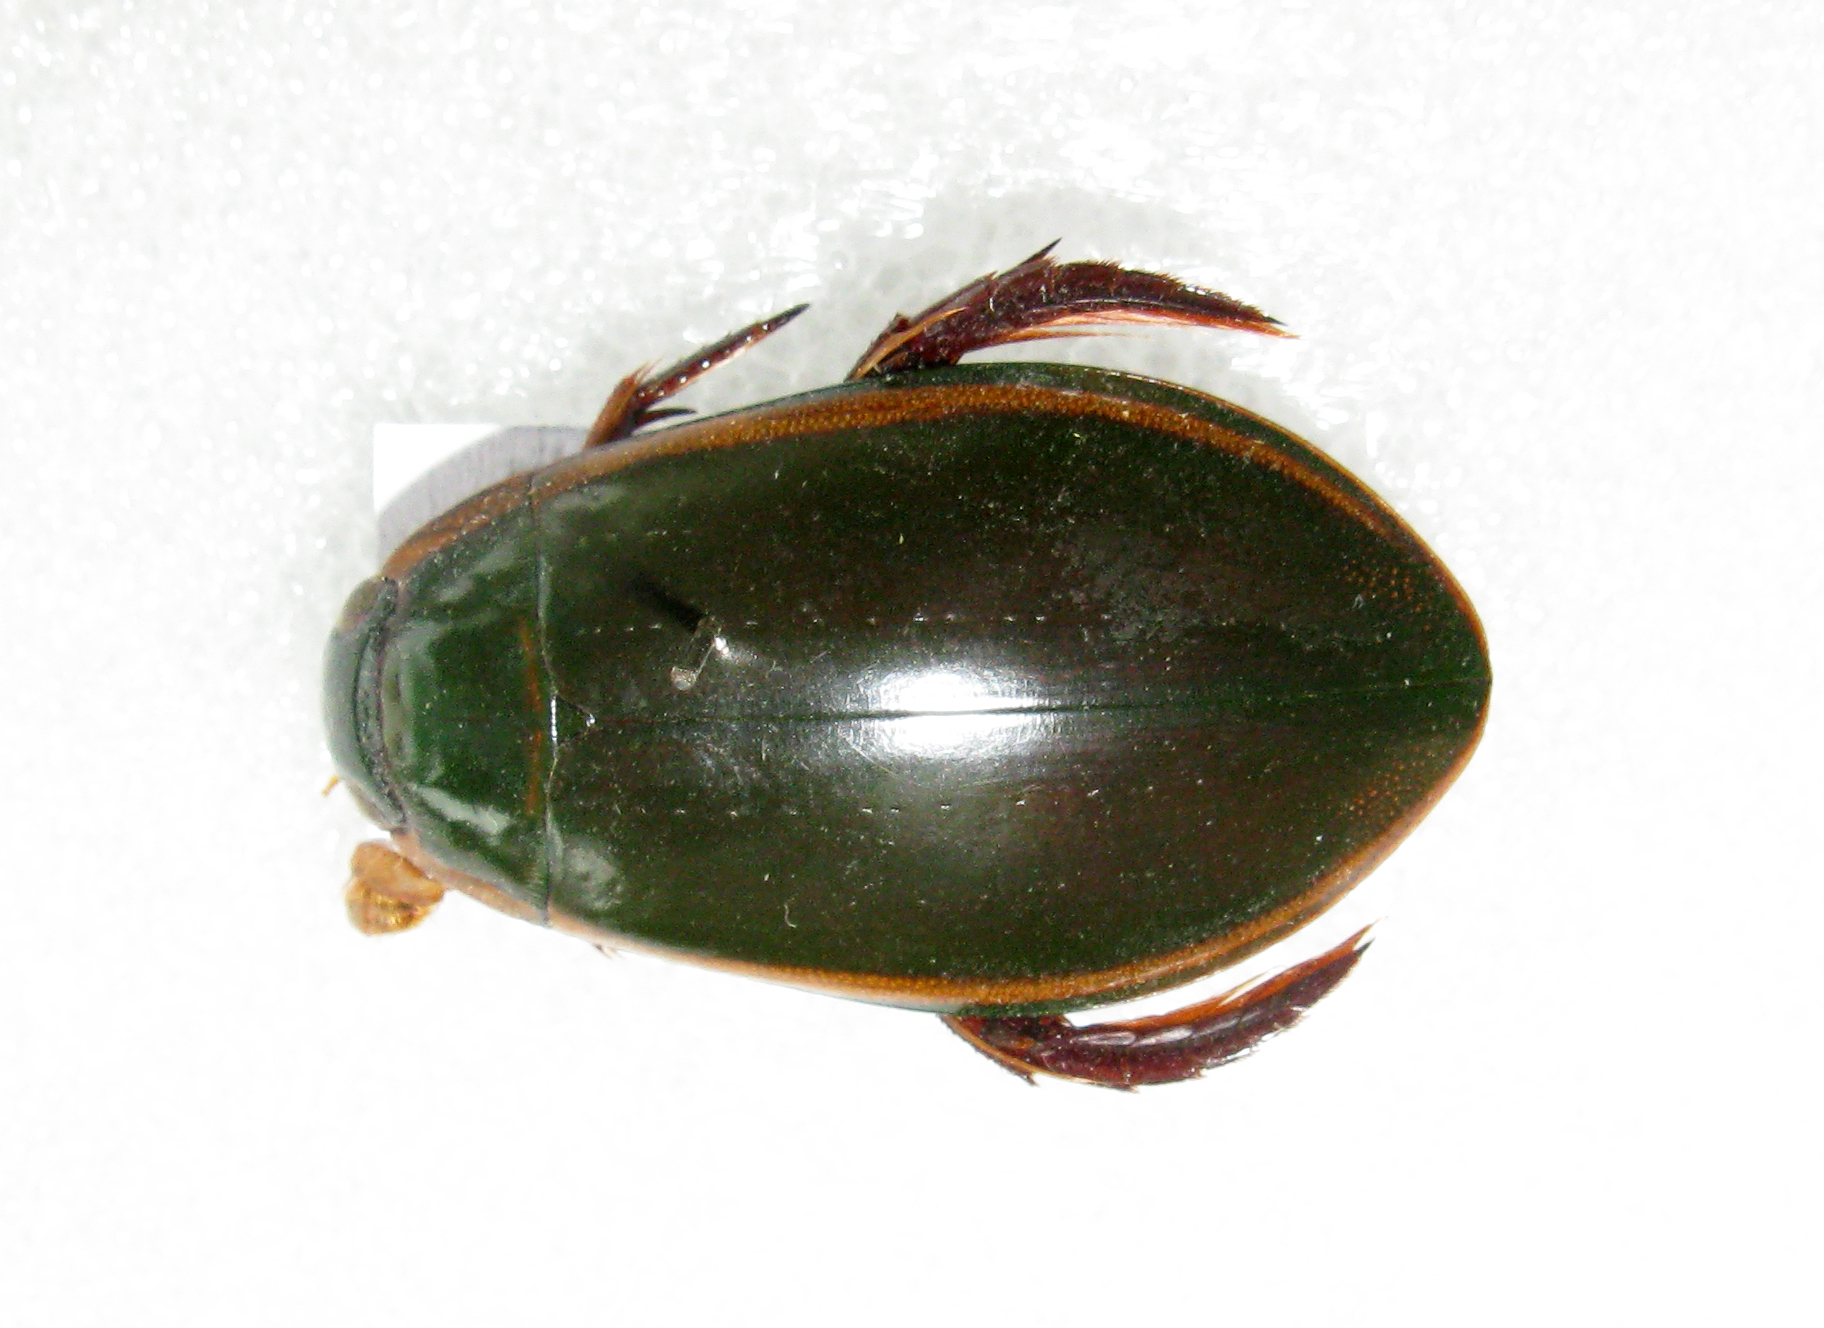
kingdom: Animalia
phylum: Arthropoda
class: Insecta
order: Coleoptera
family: Dytiscidae
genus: Cybister
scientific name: Cybister lateralimarginalis
